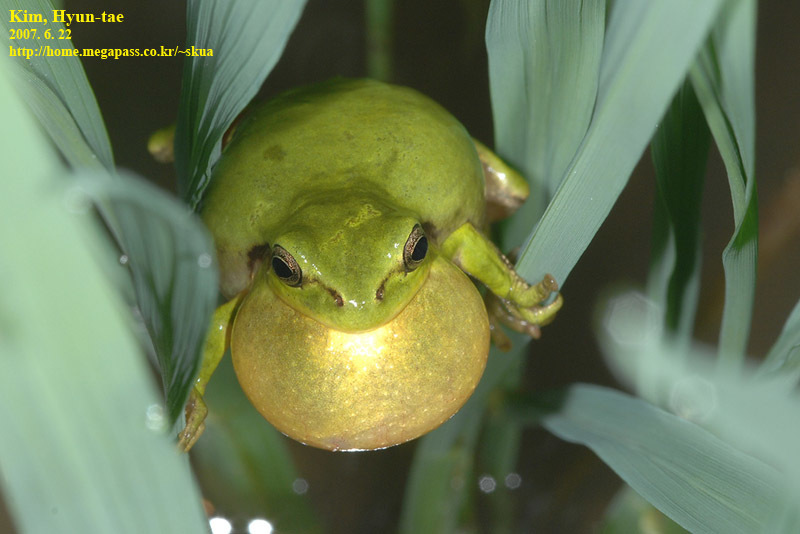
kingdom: Animalia
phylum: Chordata
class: Amphibia
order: Anura
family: Hylidae
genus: Dryophytes
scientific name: Dryophytes immaculatus
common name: North china treefrog
